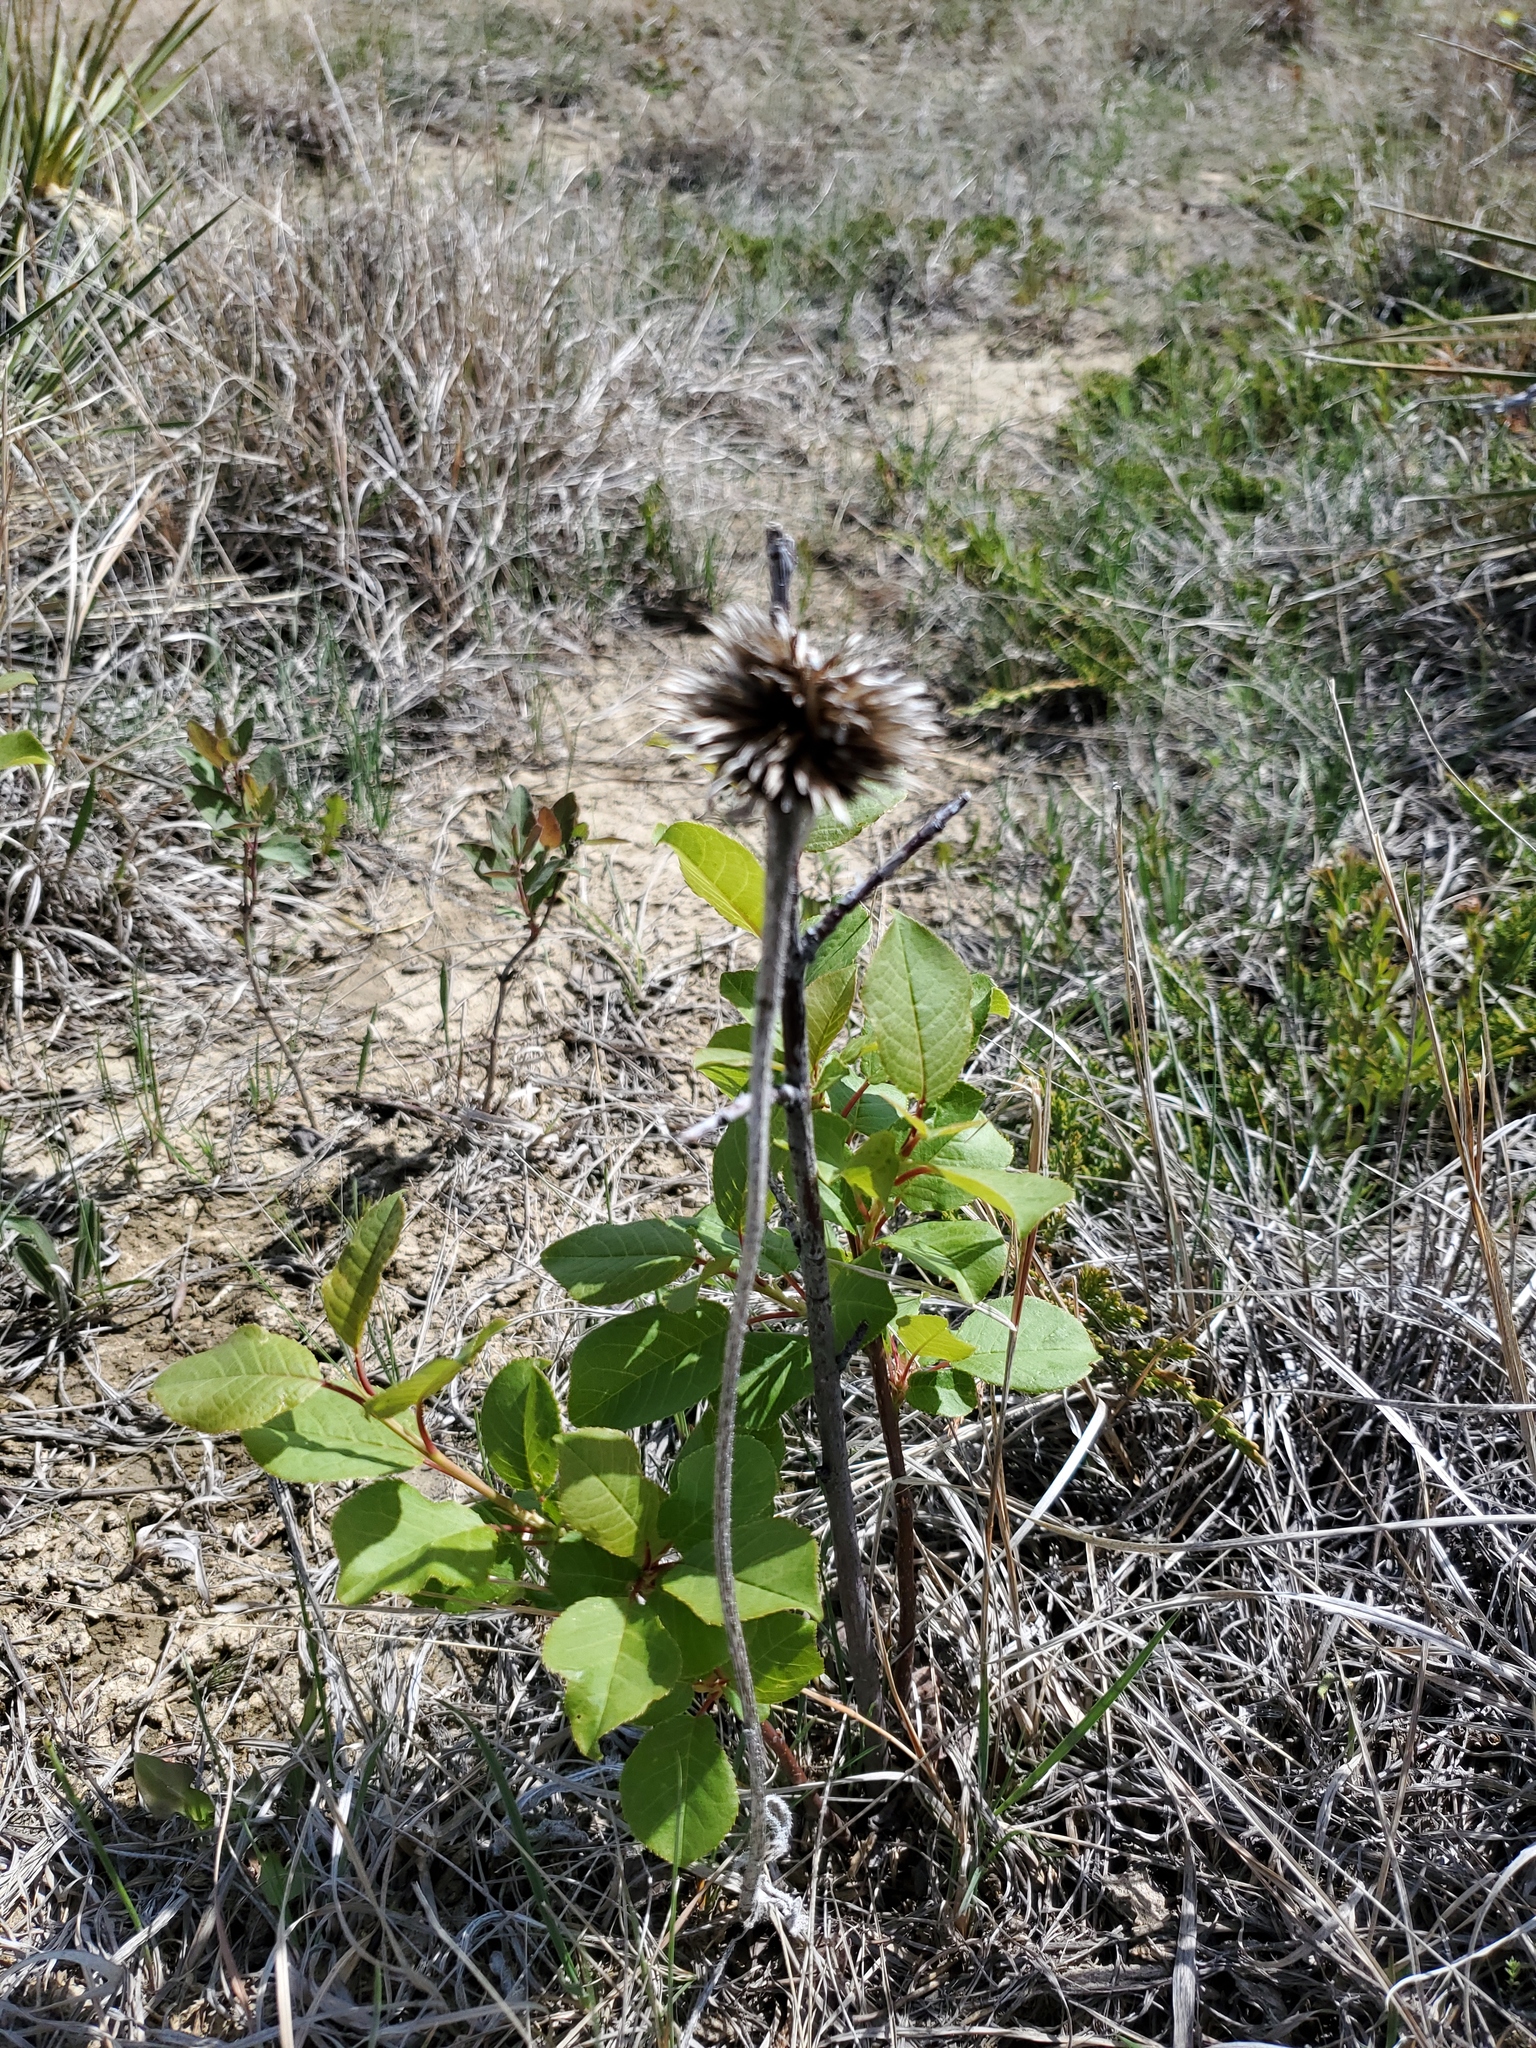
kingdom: Plantae
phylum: Tracheophyta
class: Magnoliopsida
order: Asterales
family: Asteraceae
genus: Echinacea
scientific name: Echinacea angustifolia
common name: Black-sampson echinacea
